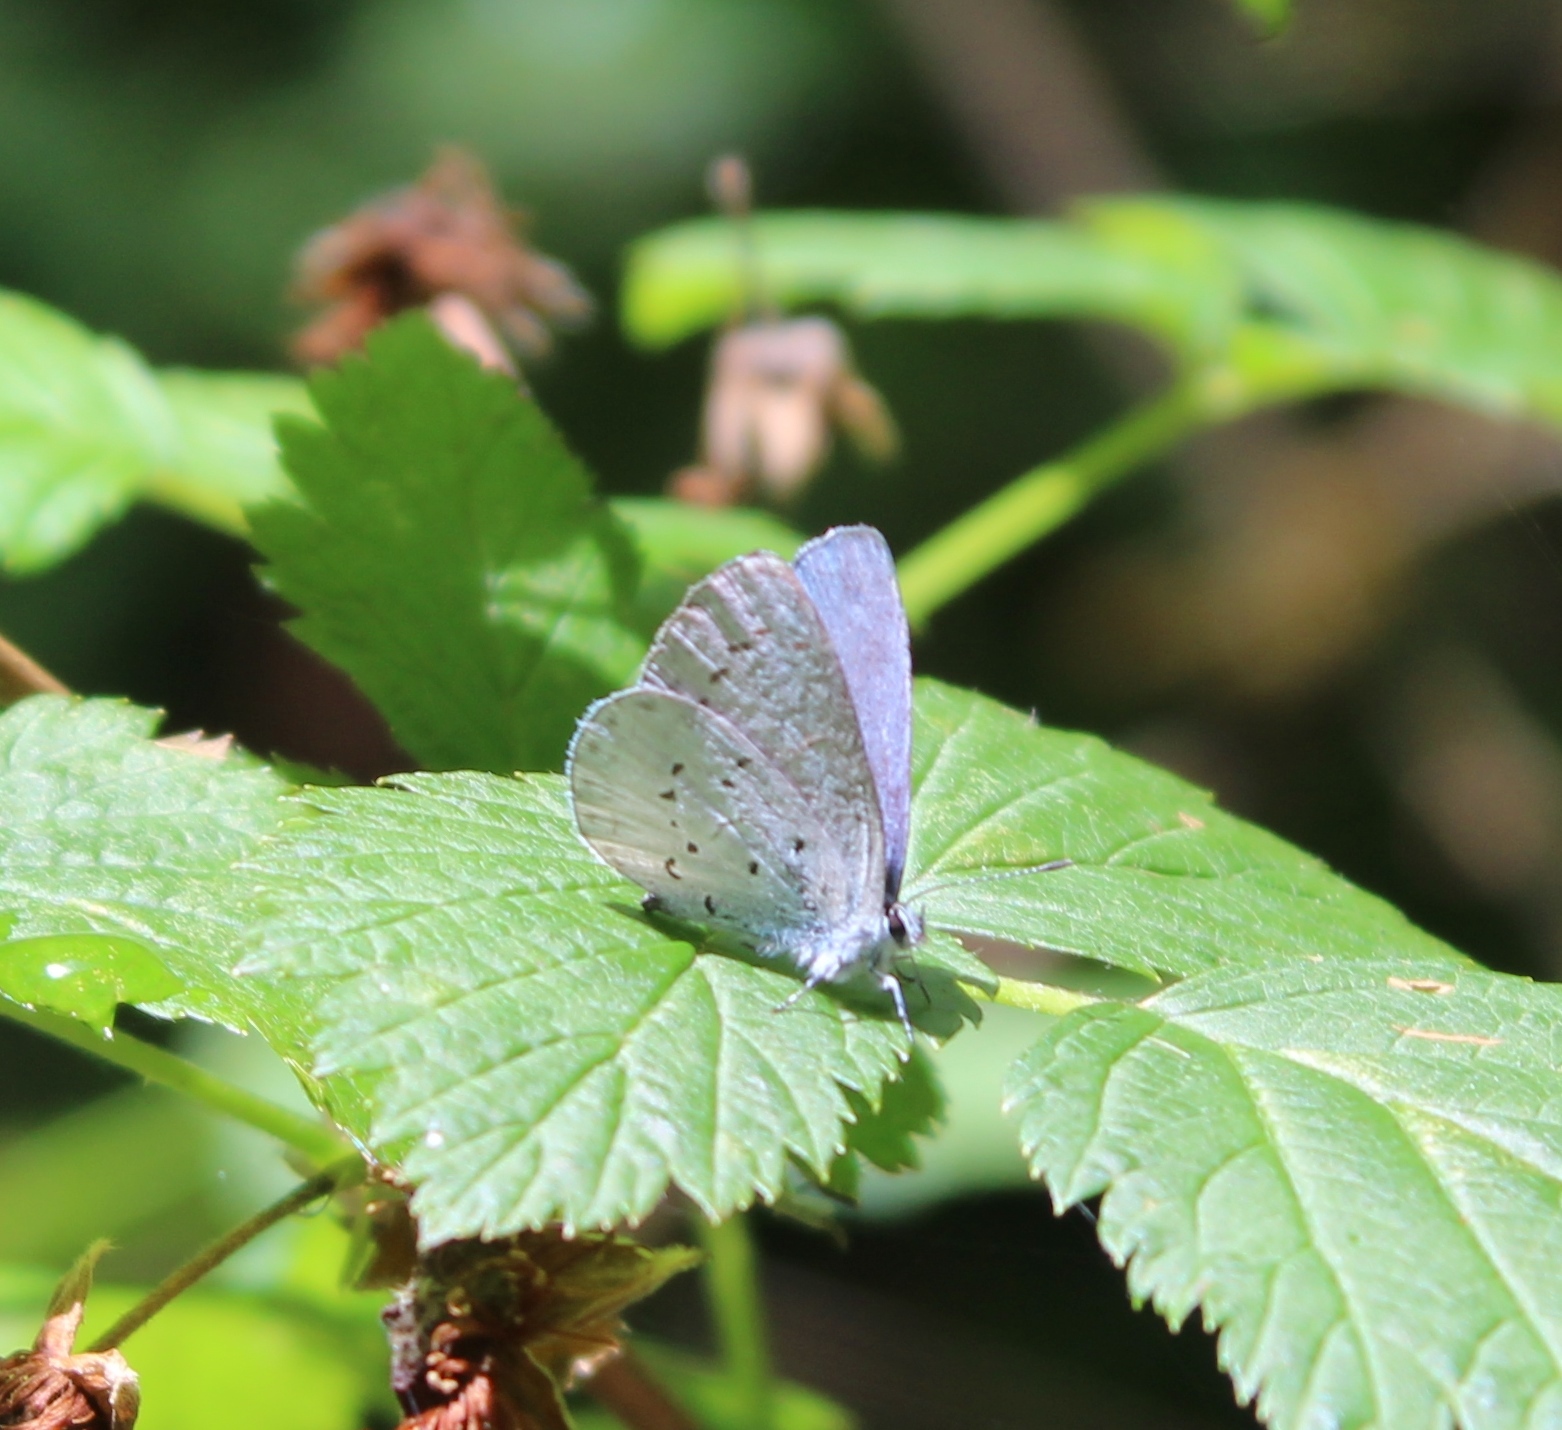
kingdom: Animalia
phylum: Arthropoda
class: Insecta
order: Lepidoptera
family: Lycaenidae
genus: Celastrina
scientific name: Celastrina ladon
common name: Spring azure
